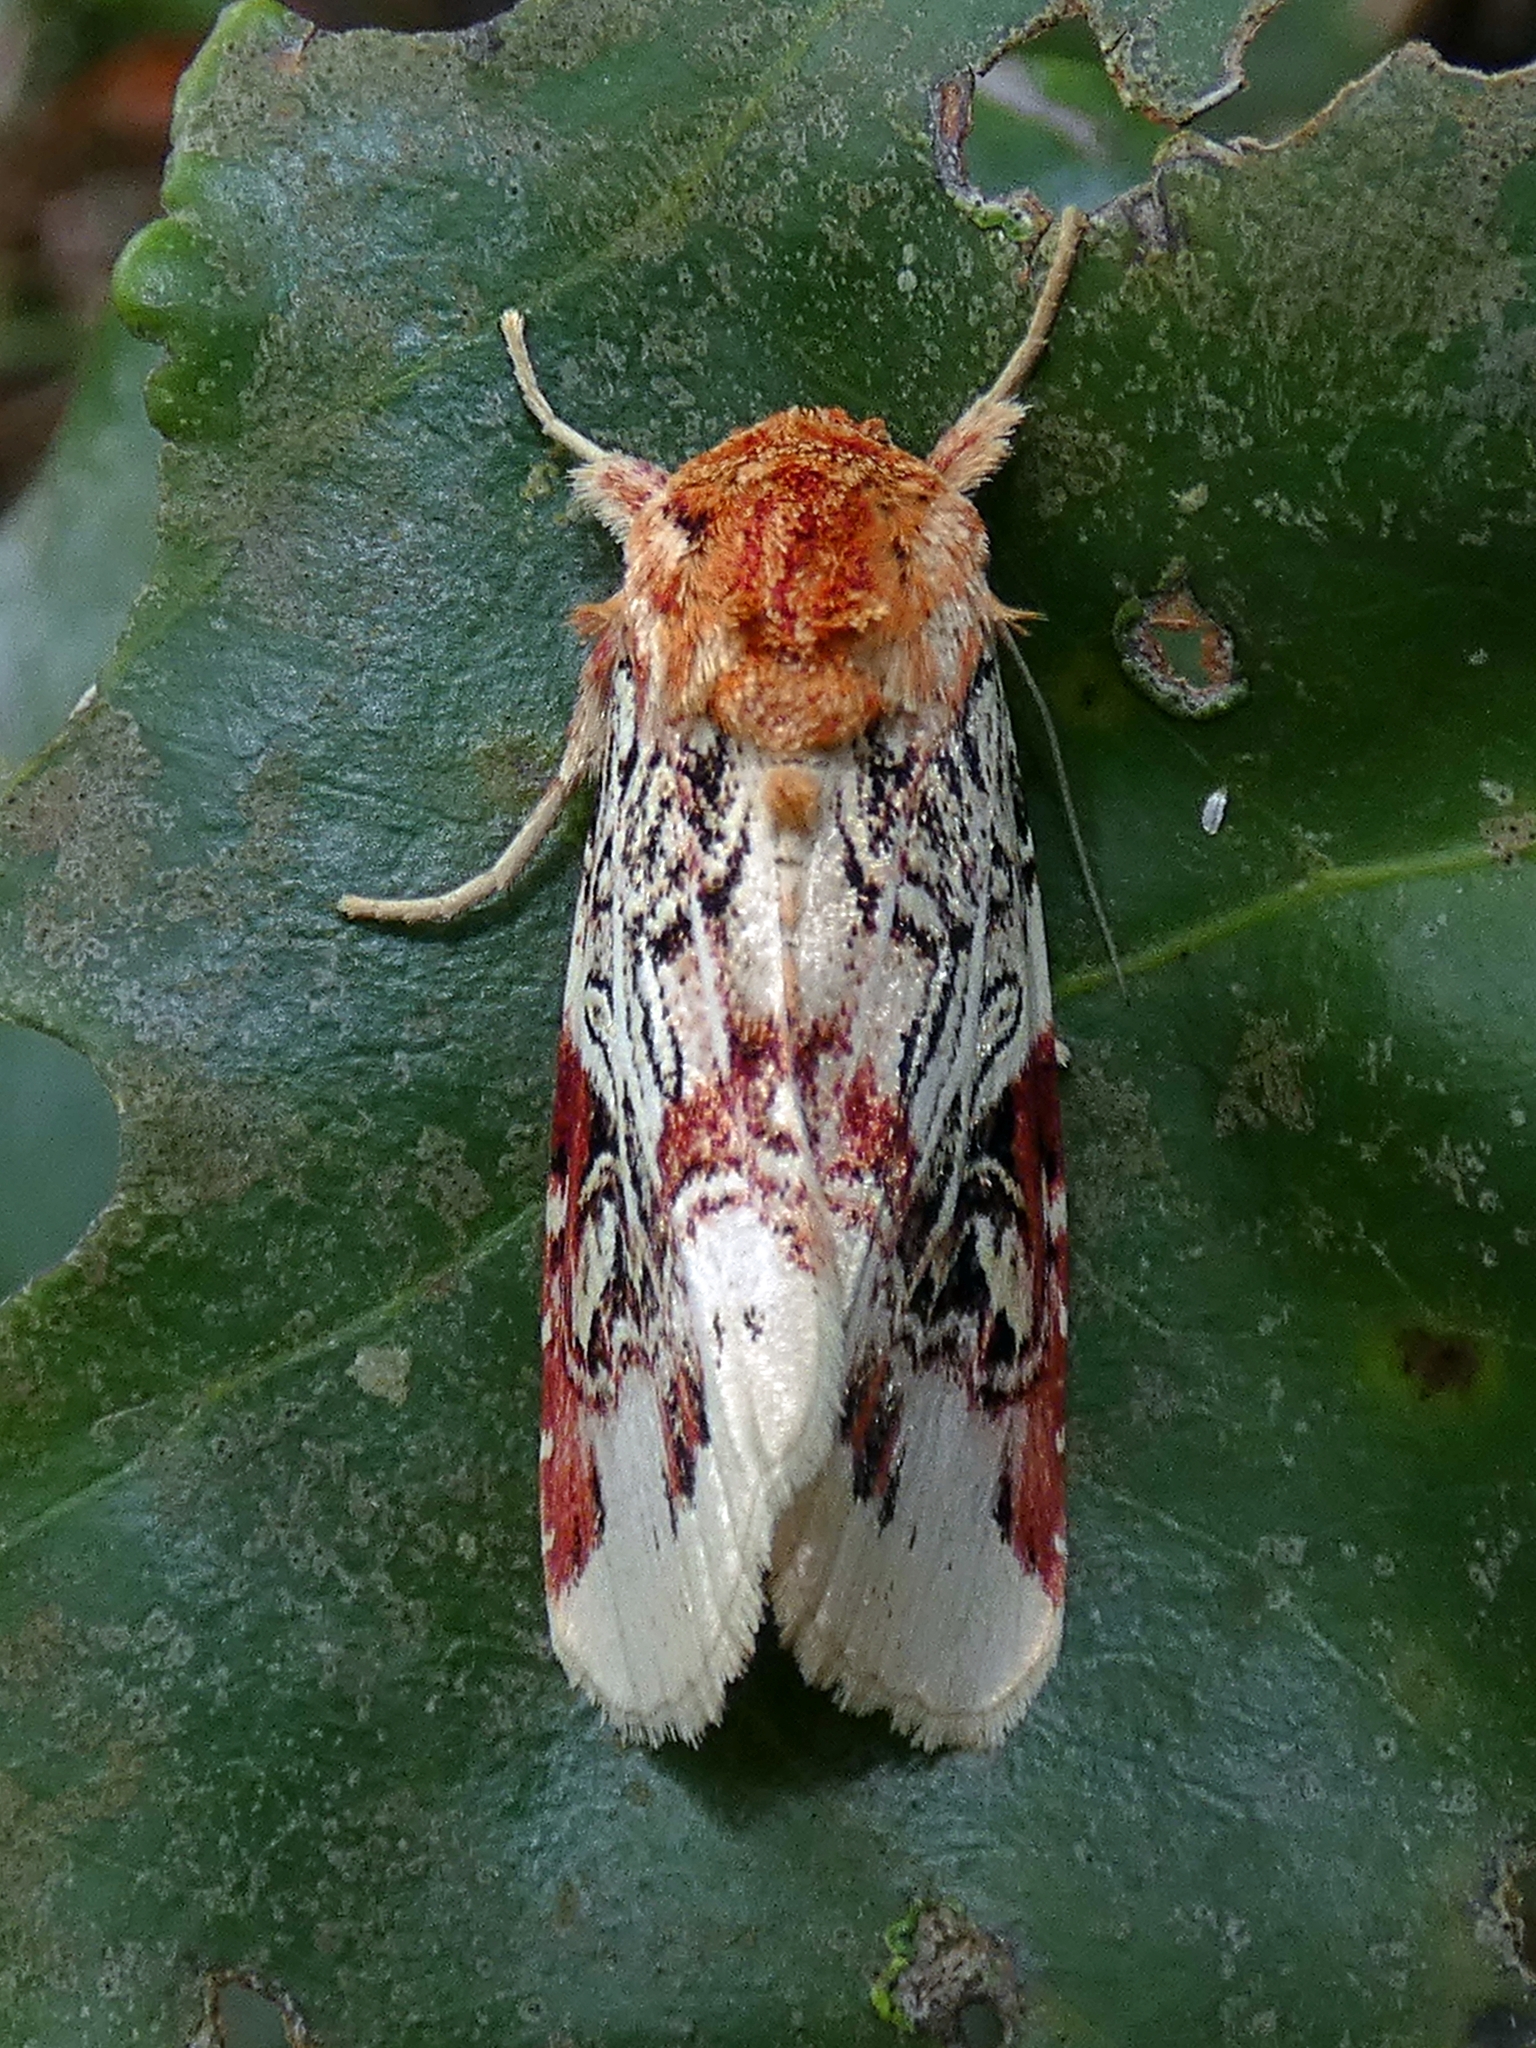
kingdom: Animalia
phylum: Arthropoda
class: Insecta
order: Lepidoptera
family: Noctuidae
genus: Spodoptera
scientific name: Spodoptera picta
